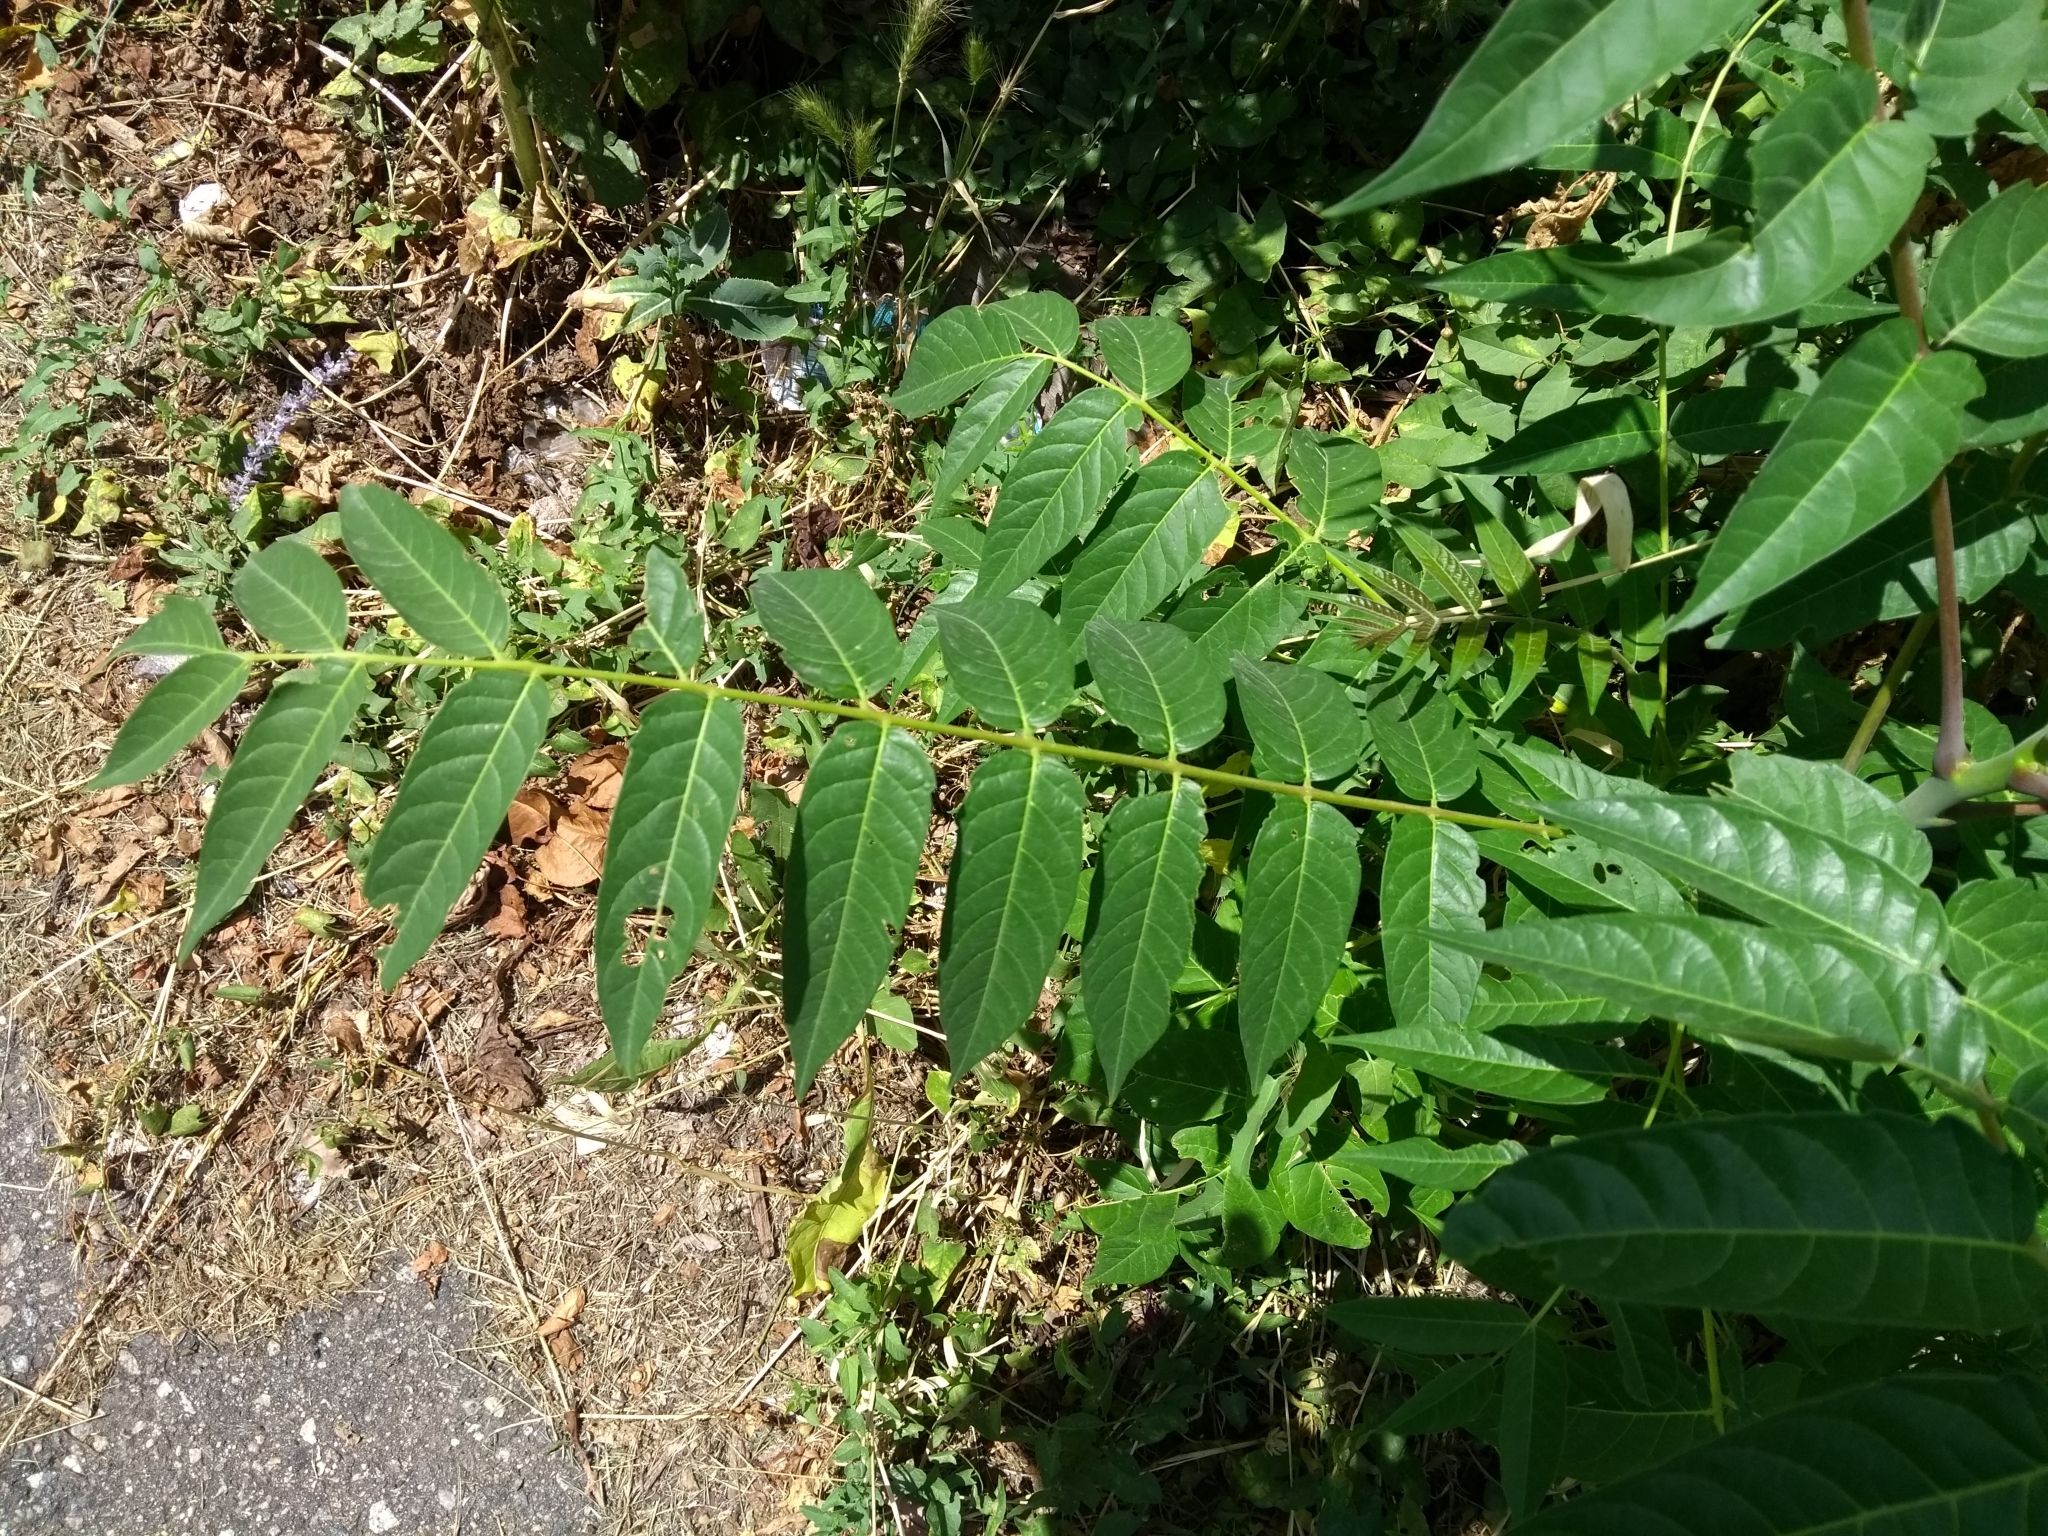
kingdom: Plantae
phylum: Tracheophyta
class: Magnoliopsida
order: Sapindales
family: Simaroubaceae
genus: Ailanthus
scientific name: Ailanthus altissima
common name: Tree-of-heaven
